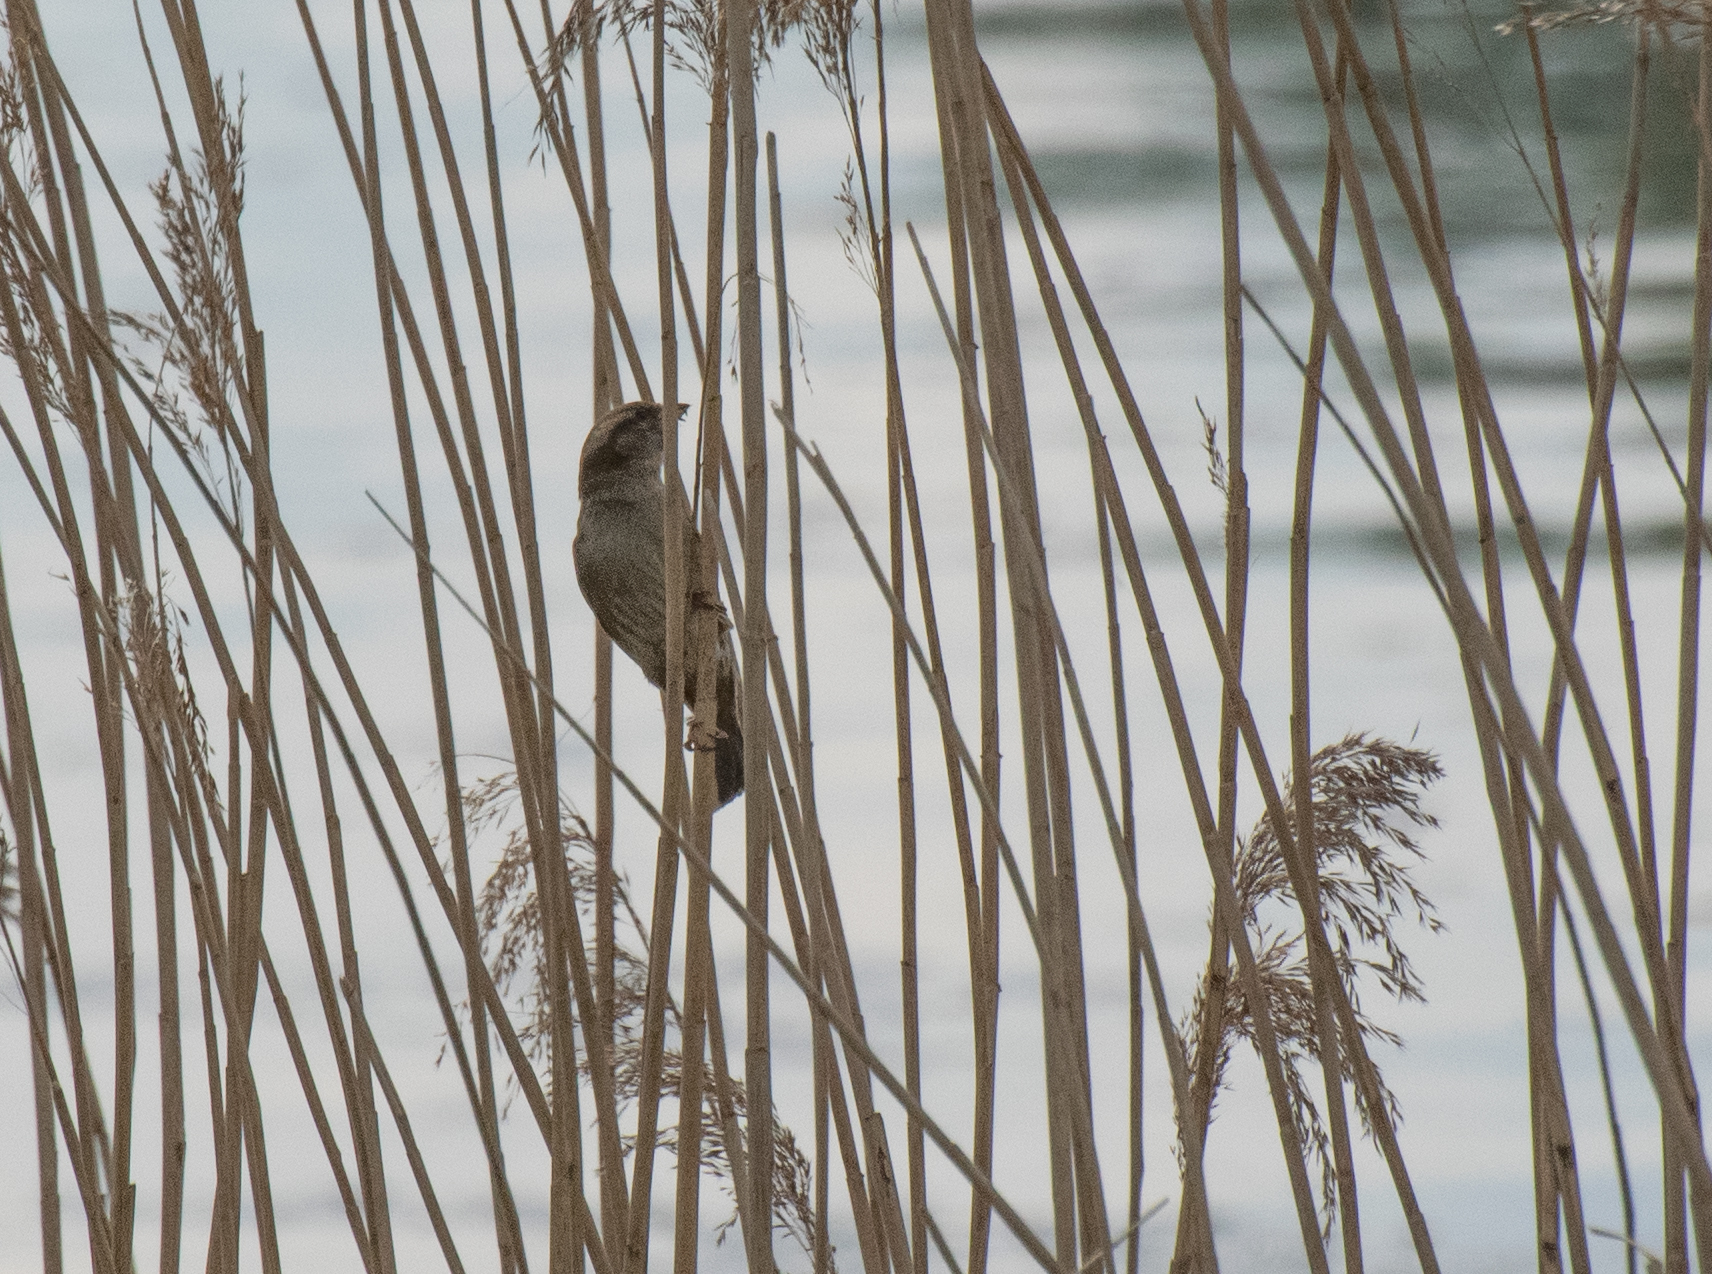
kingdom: Animalia
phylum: Chordata
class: Aves
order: Passeriformes
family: Passeridae
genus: Passer
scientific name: Passer domesticus
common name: House sparrow
